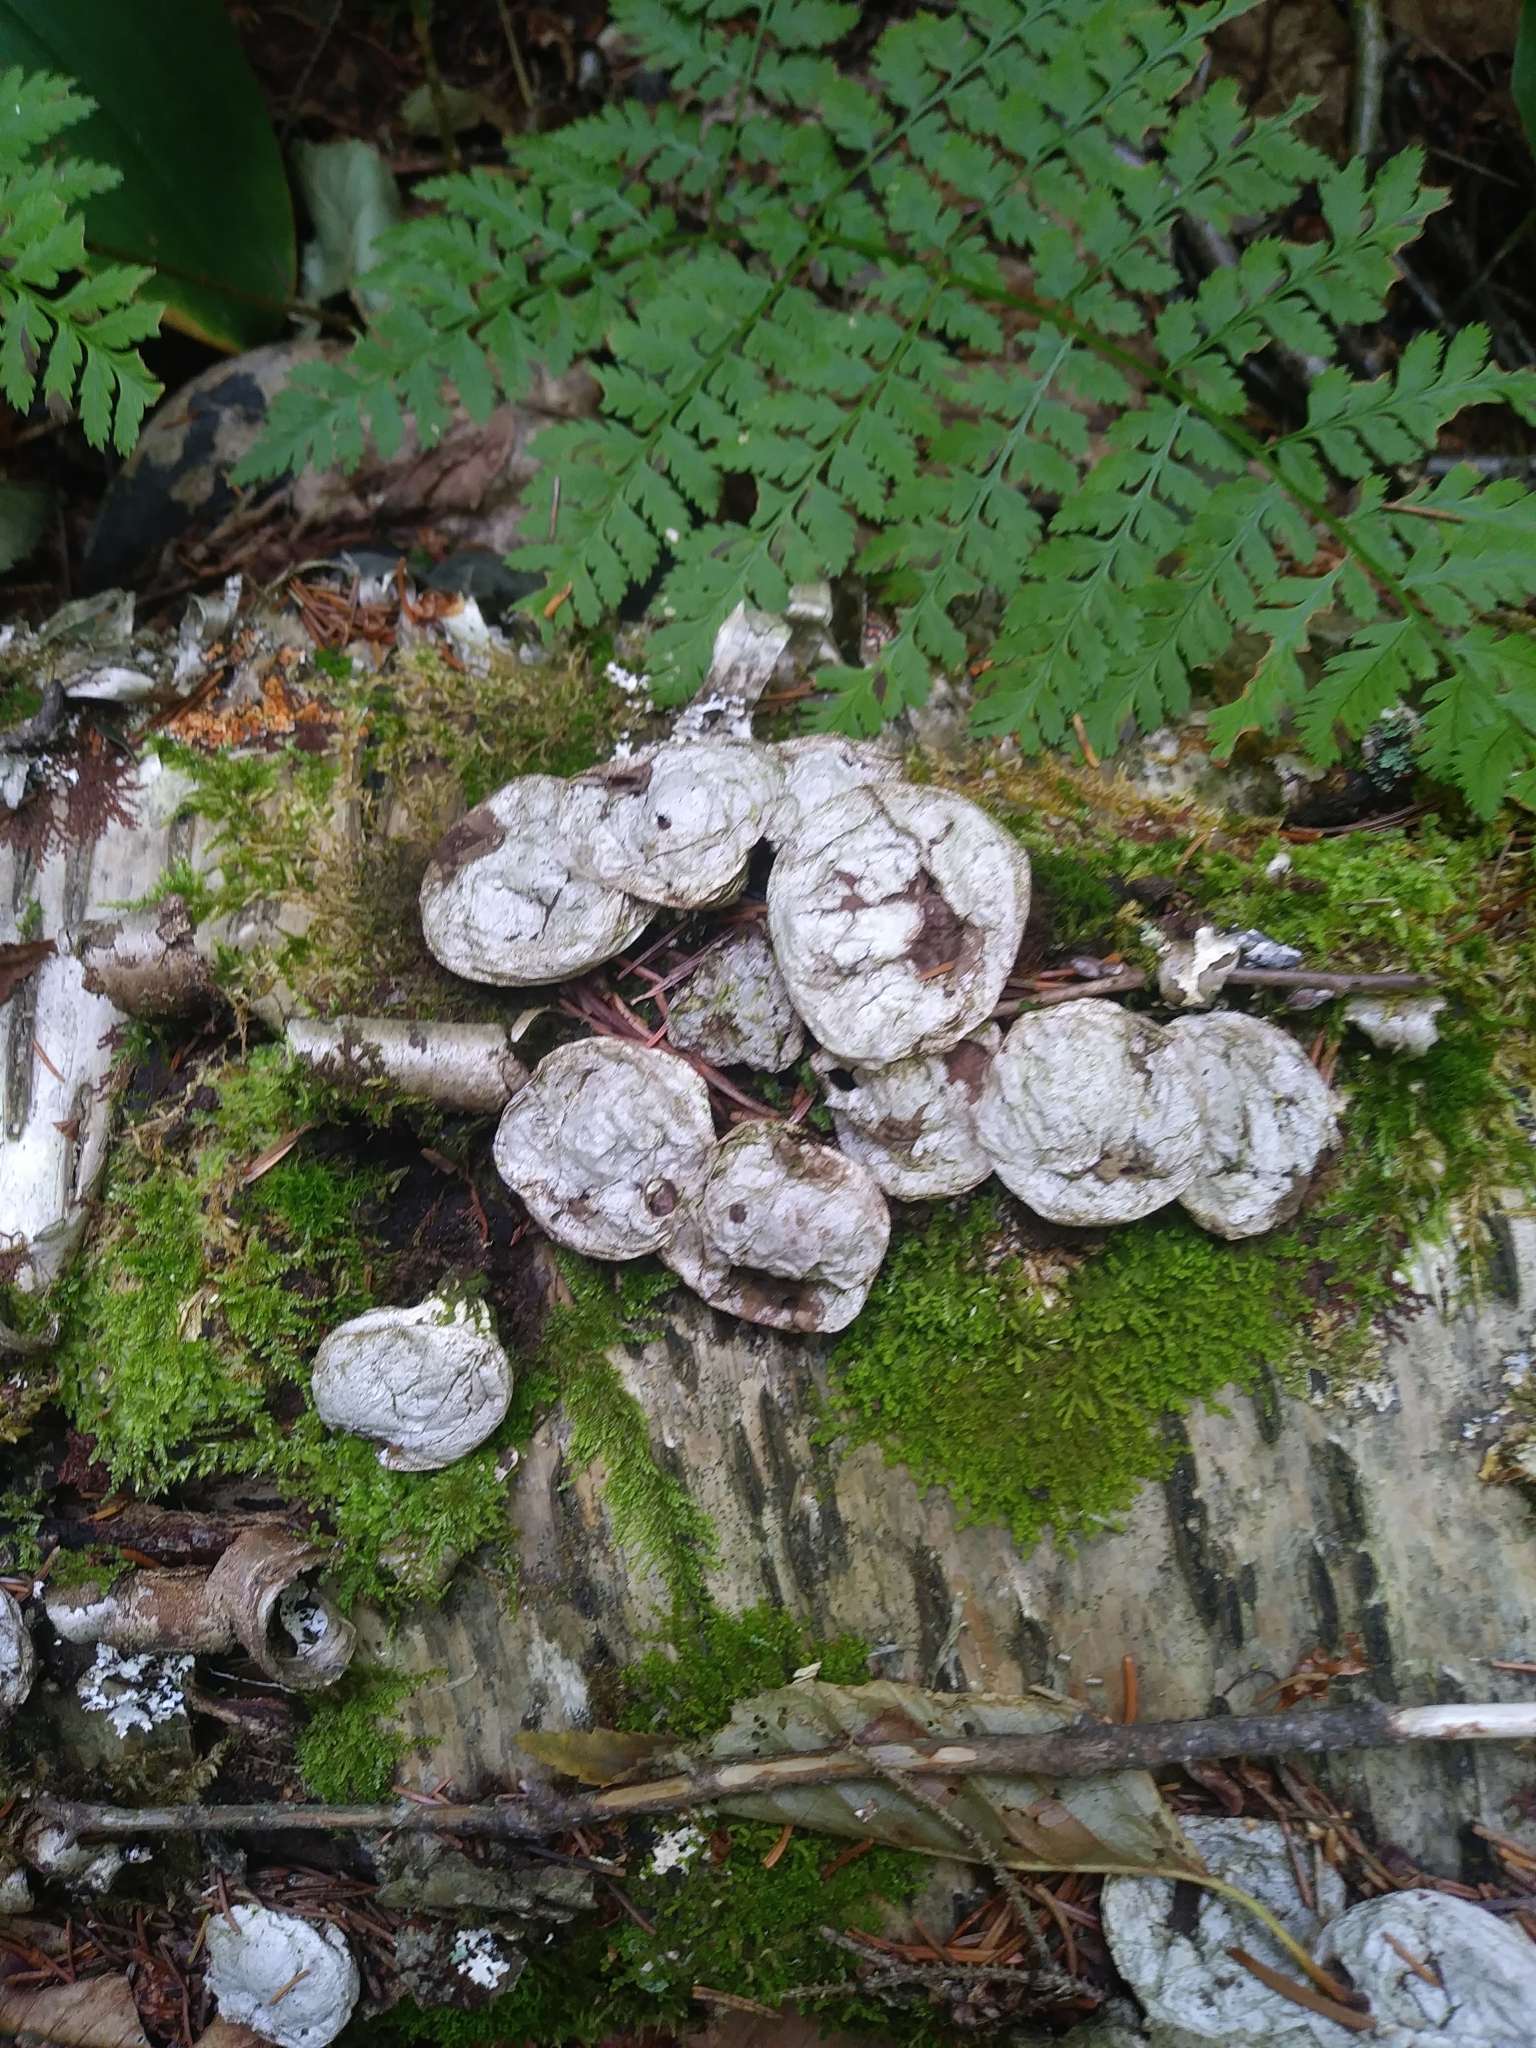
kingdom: Fungi
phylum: Basidiomycota
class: Agaricomycetes
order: Agaricales
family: Lycoperdaceae
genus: Apioperdon
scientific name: Apioperdon pyriforme
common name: Pear-shaped puffball
